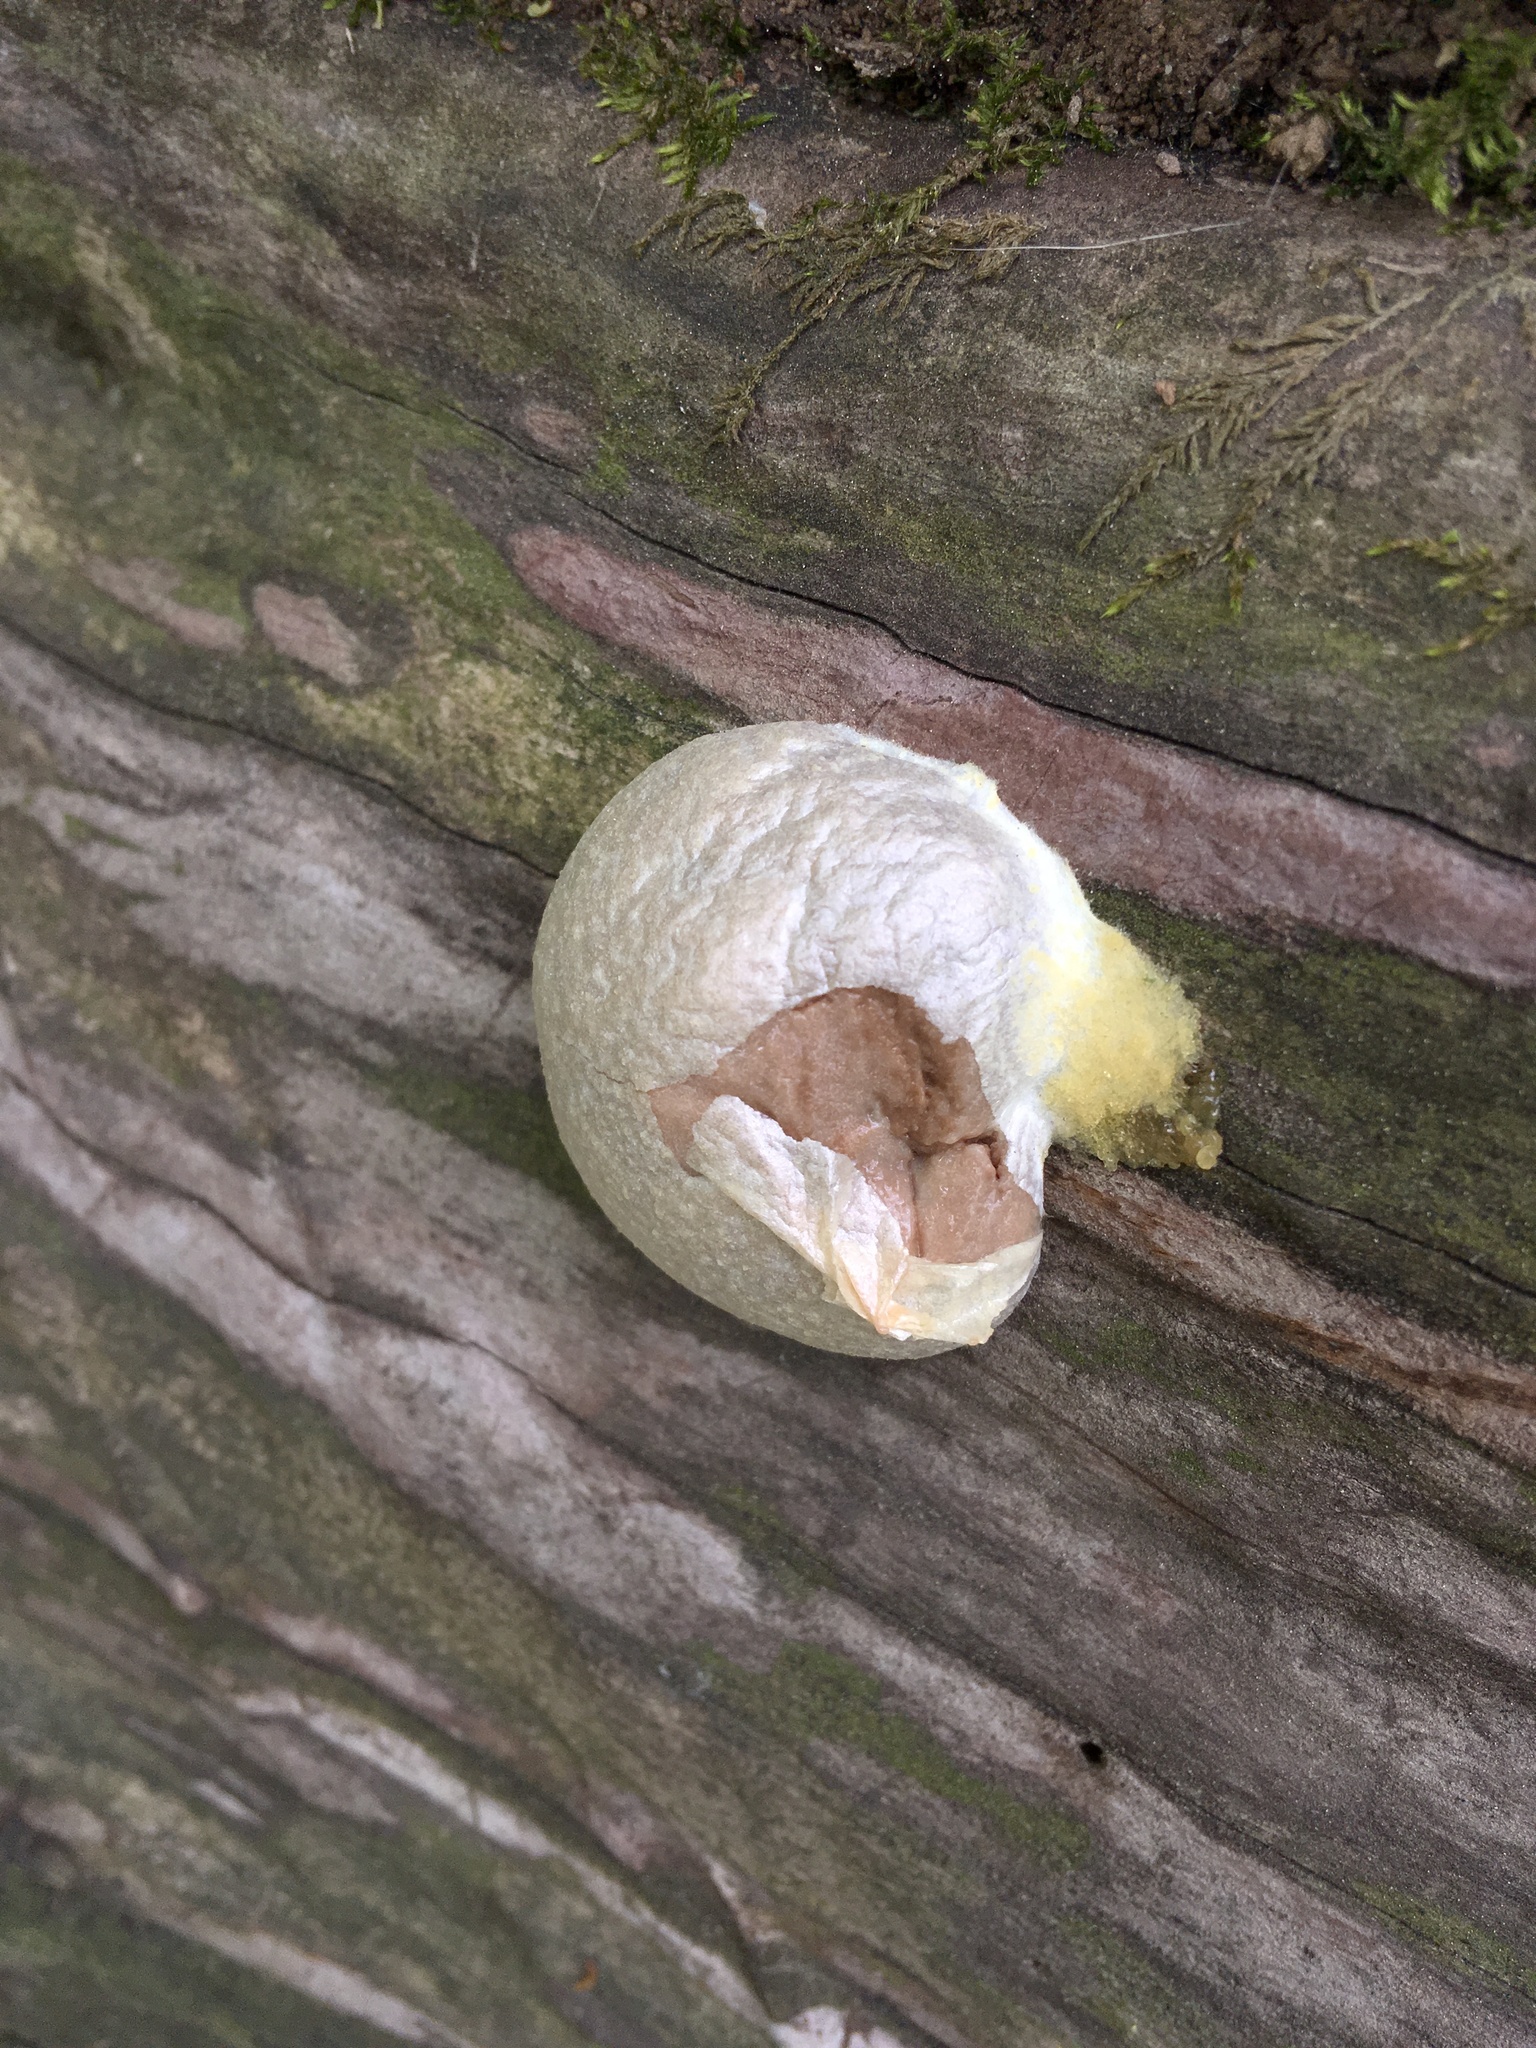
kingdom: Protozoa
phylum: Mycetozoa
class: Myxomycetes
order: Cribrariales
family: Tubiferaceae
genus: Reticularia
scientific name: Reticularia lycoperdon
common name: False puffball
